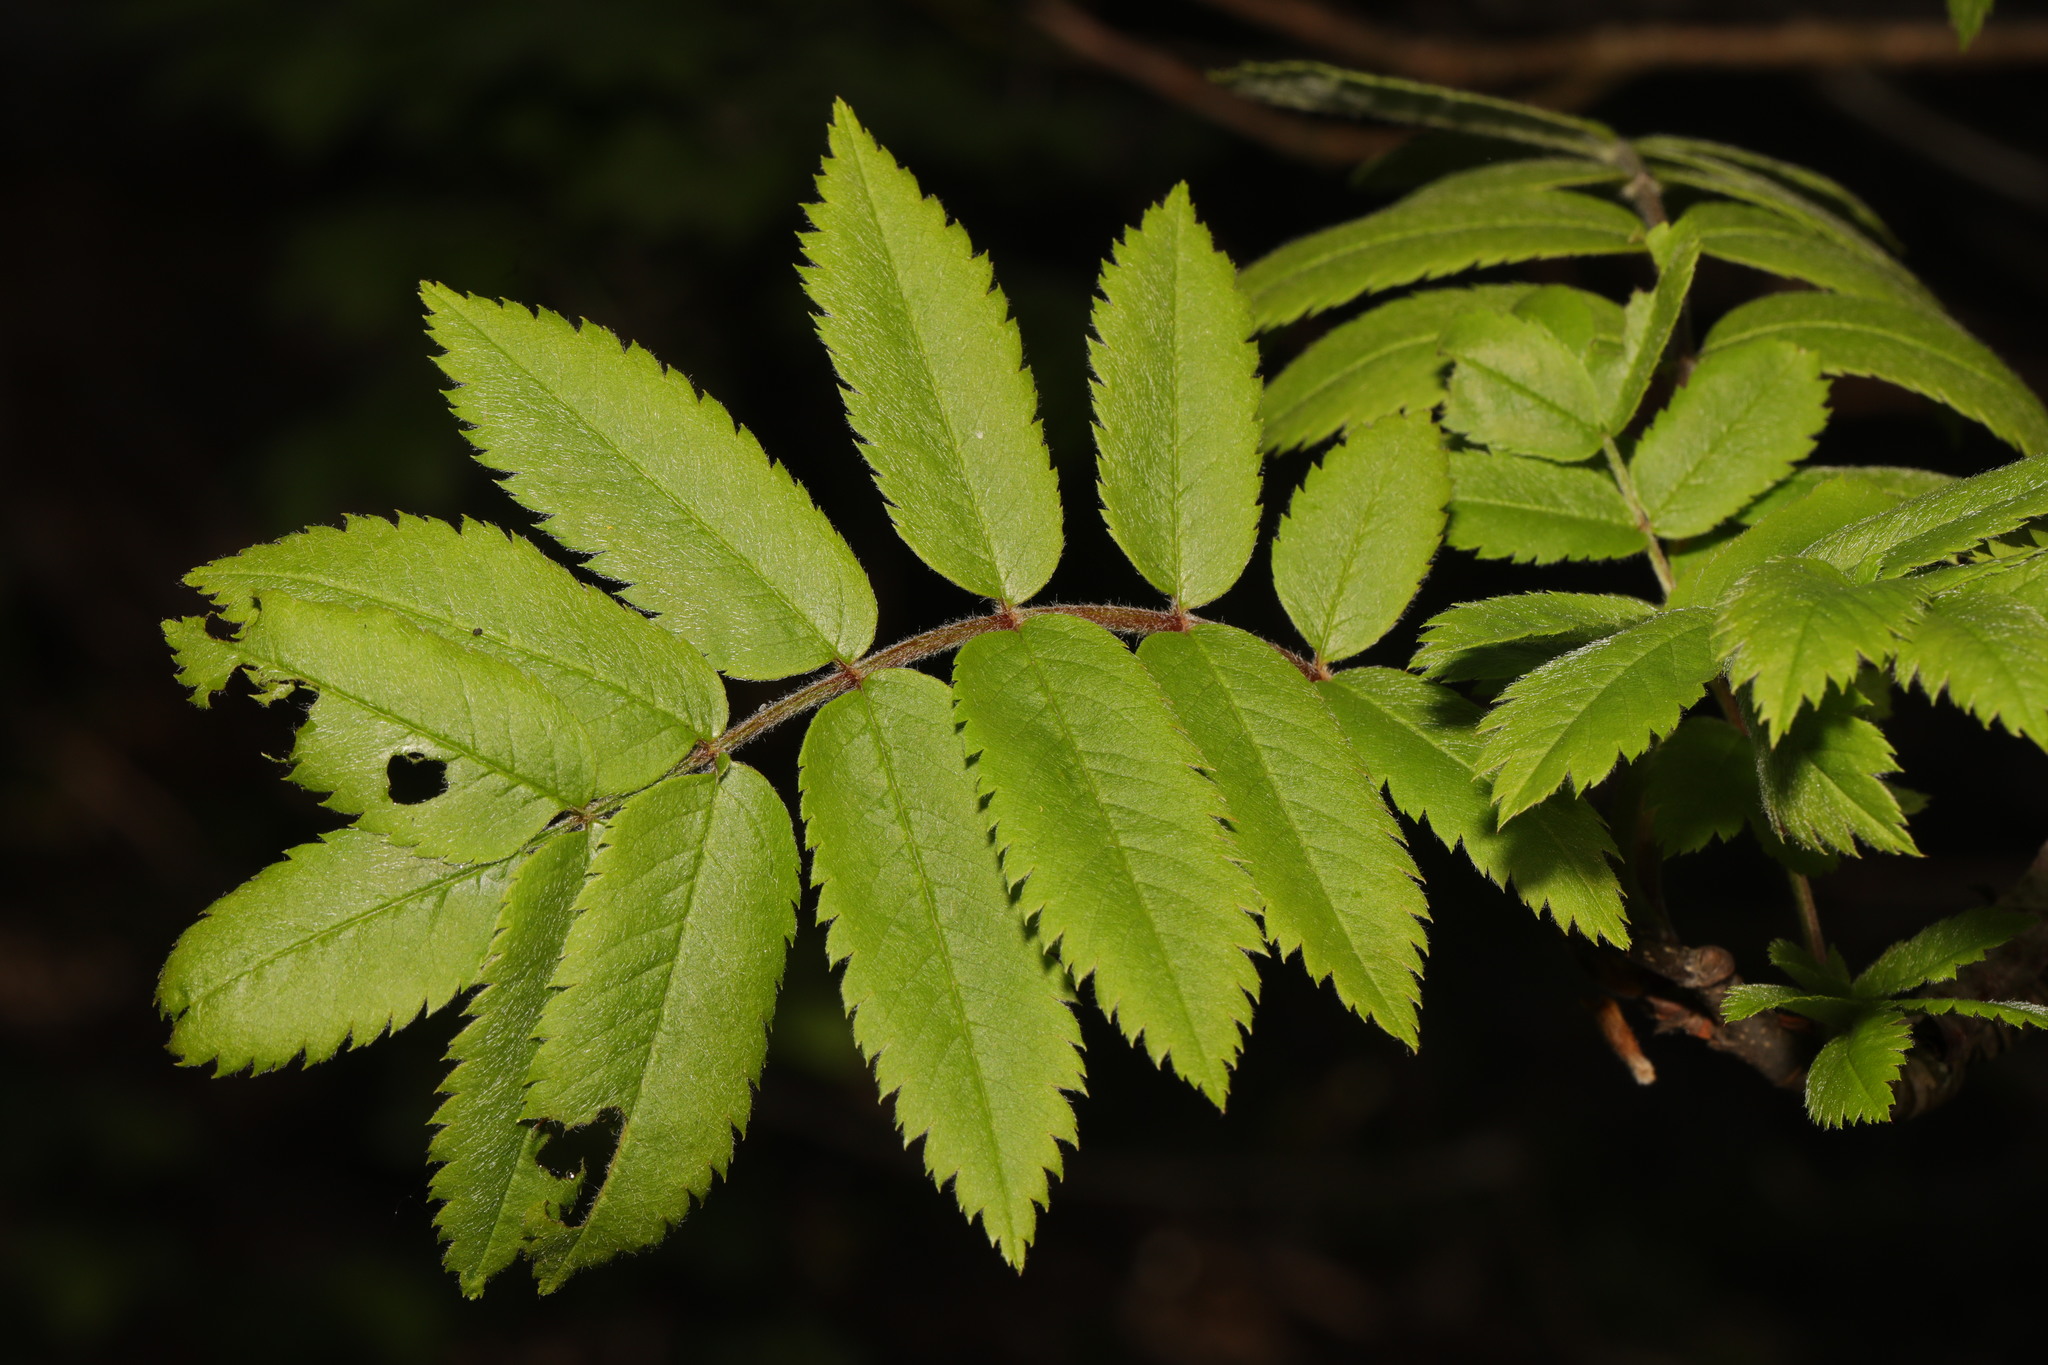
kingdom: Plantae
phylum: Tracheophyta
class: Magnoliopsida
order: Rosales
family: Rosaceae
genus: Sorbus
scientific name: Sorbus aucuparia
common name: Rowan
